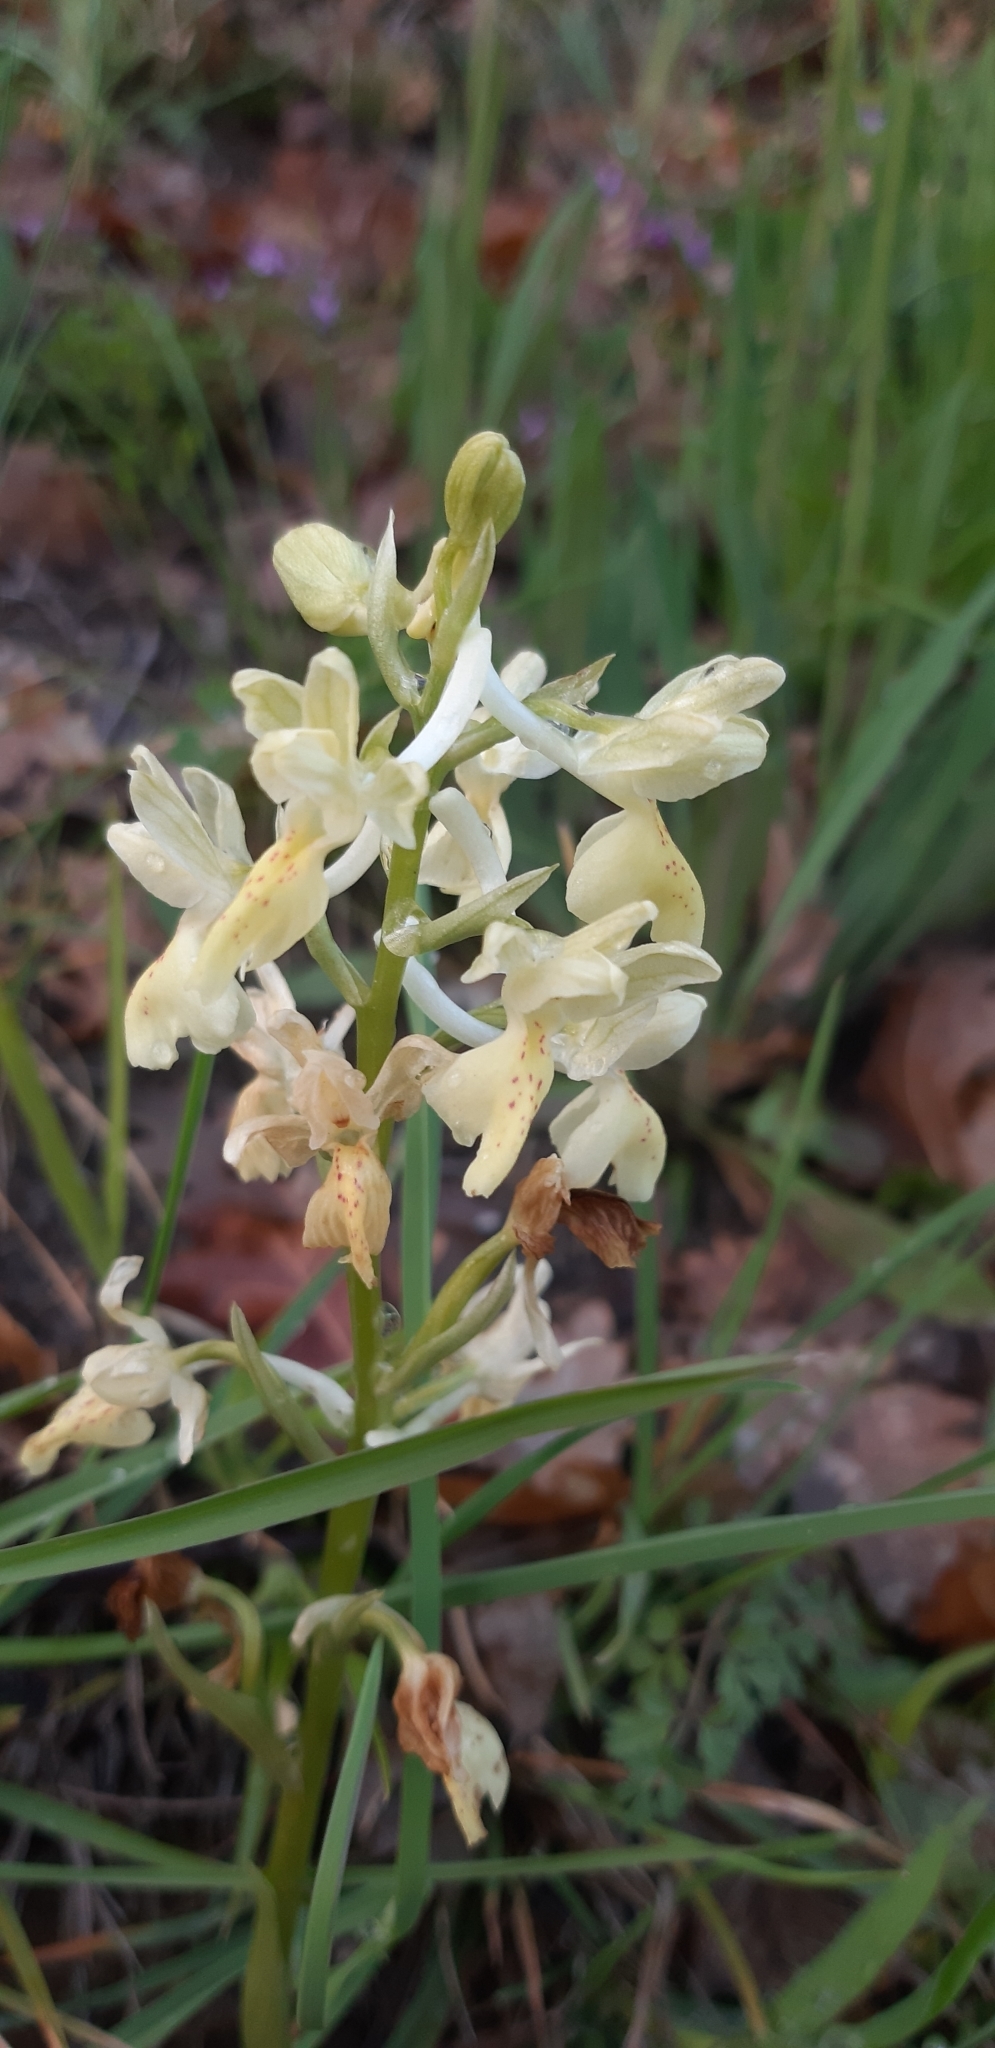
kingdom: Plantae
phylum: Tracheophyta
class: Liliopsida
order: Asparagales
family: Orchidaceae
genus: Orchis
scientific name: Orchis provincialis
